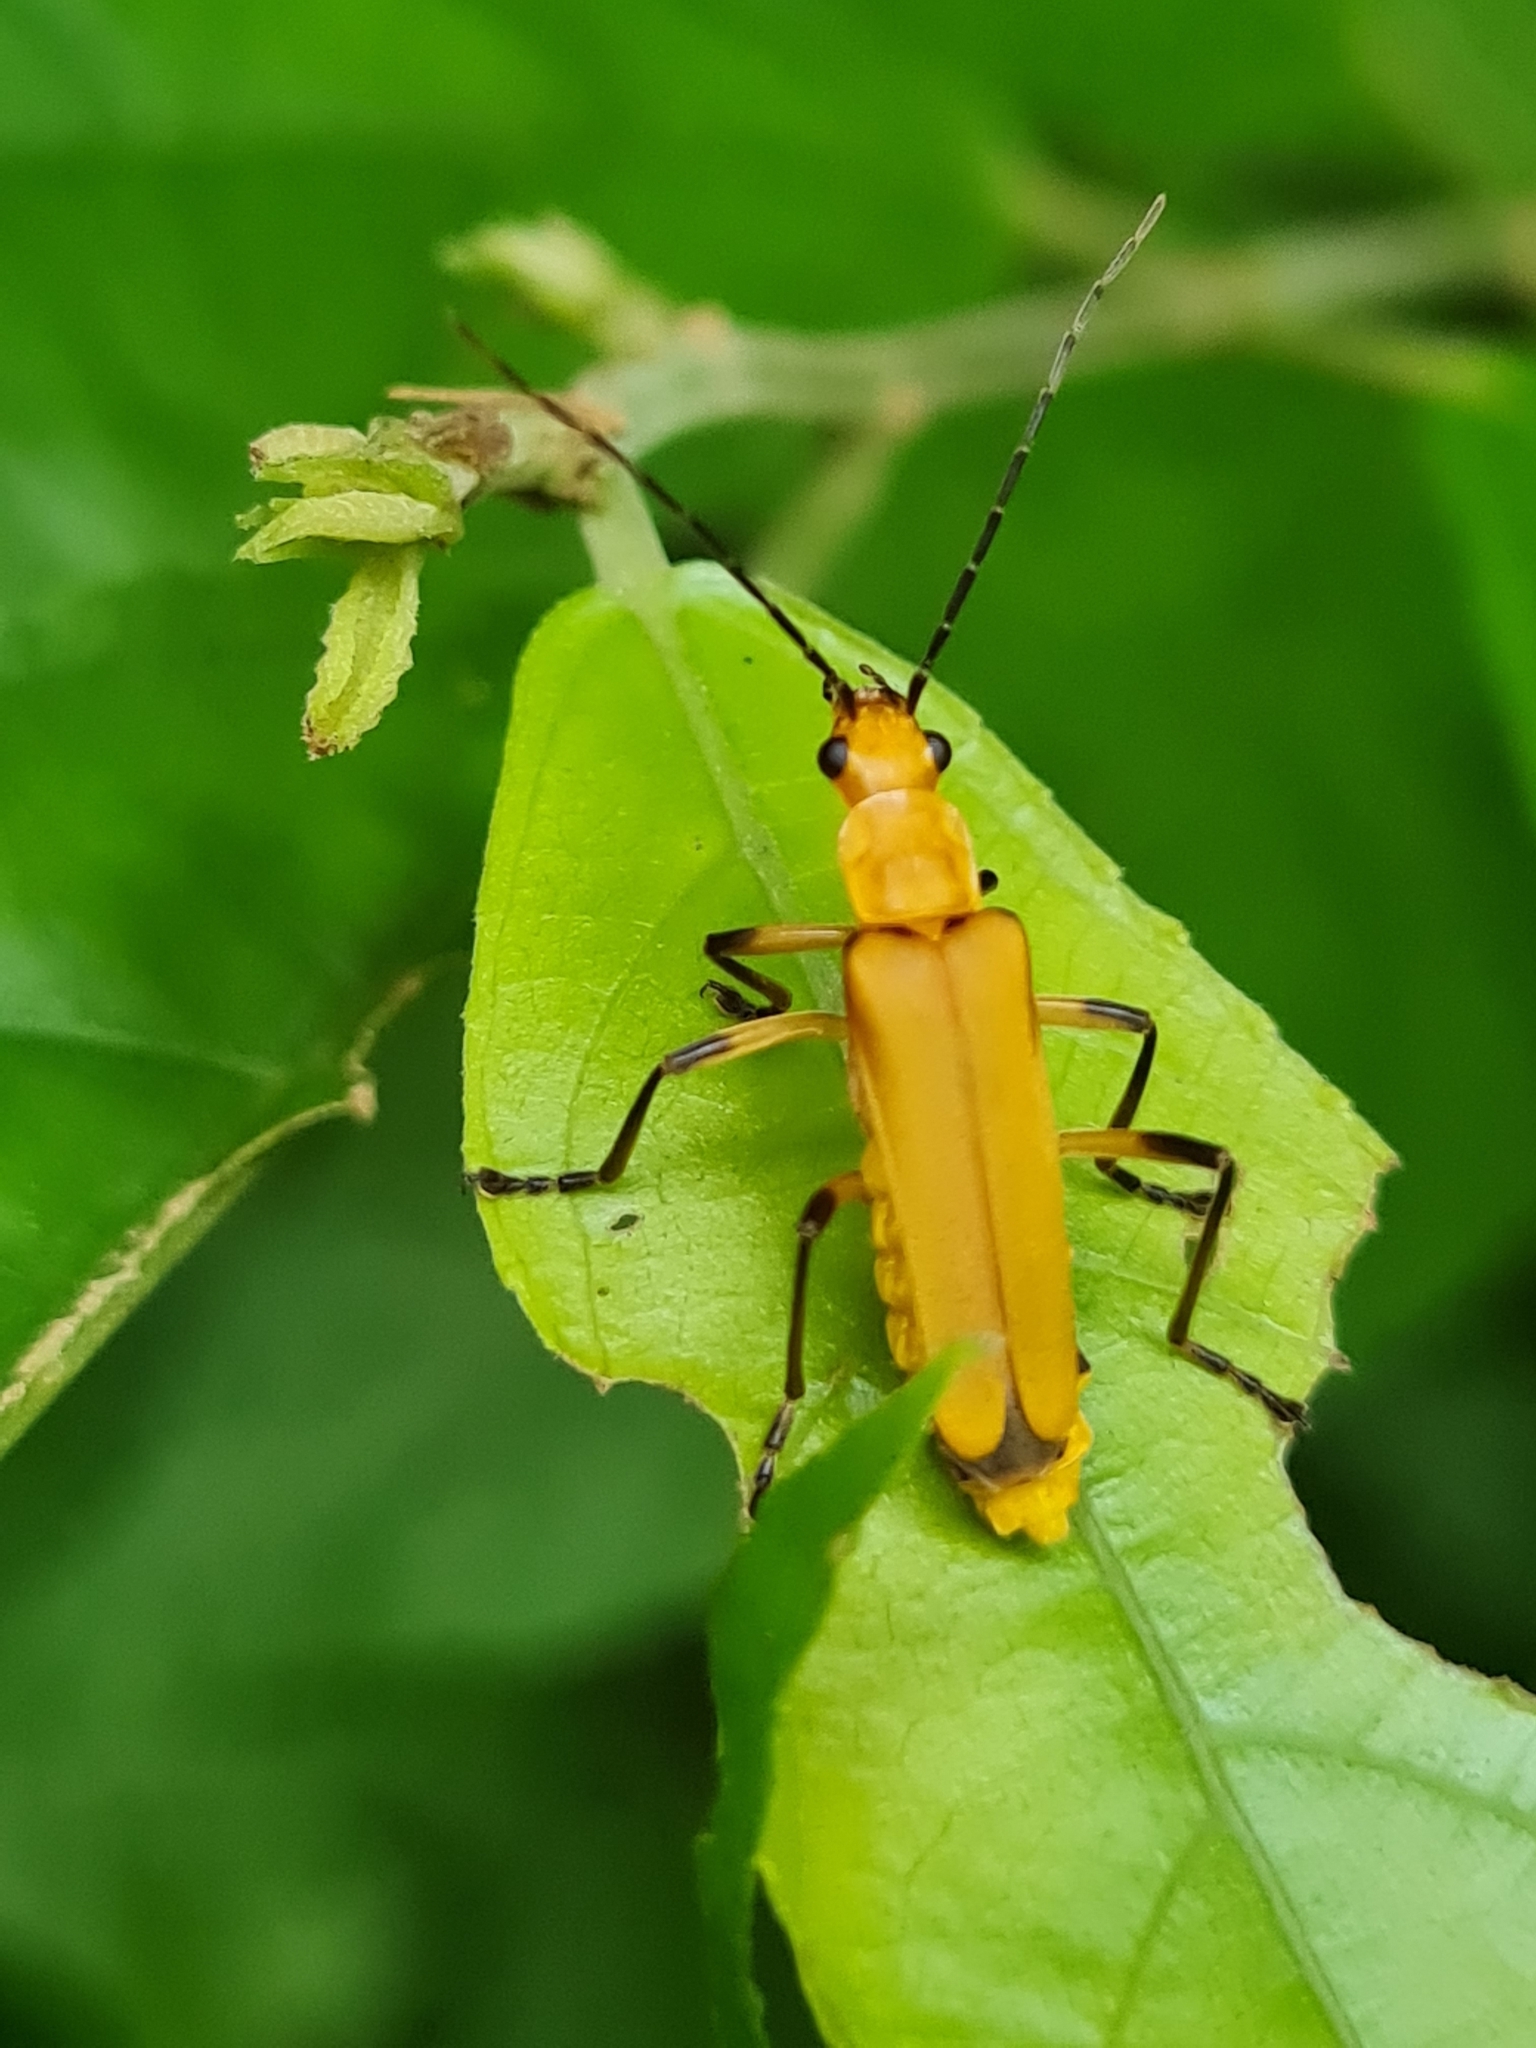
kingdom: Animalia
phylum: Arthropoda
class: Insecta
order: Coleoptera
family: Cantharidae
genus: Chauliognathus
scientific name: Chauliognathus
